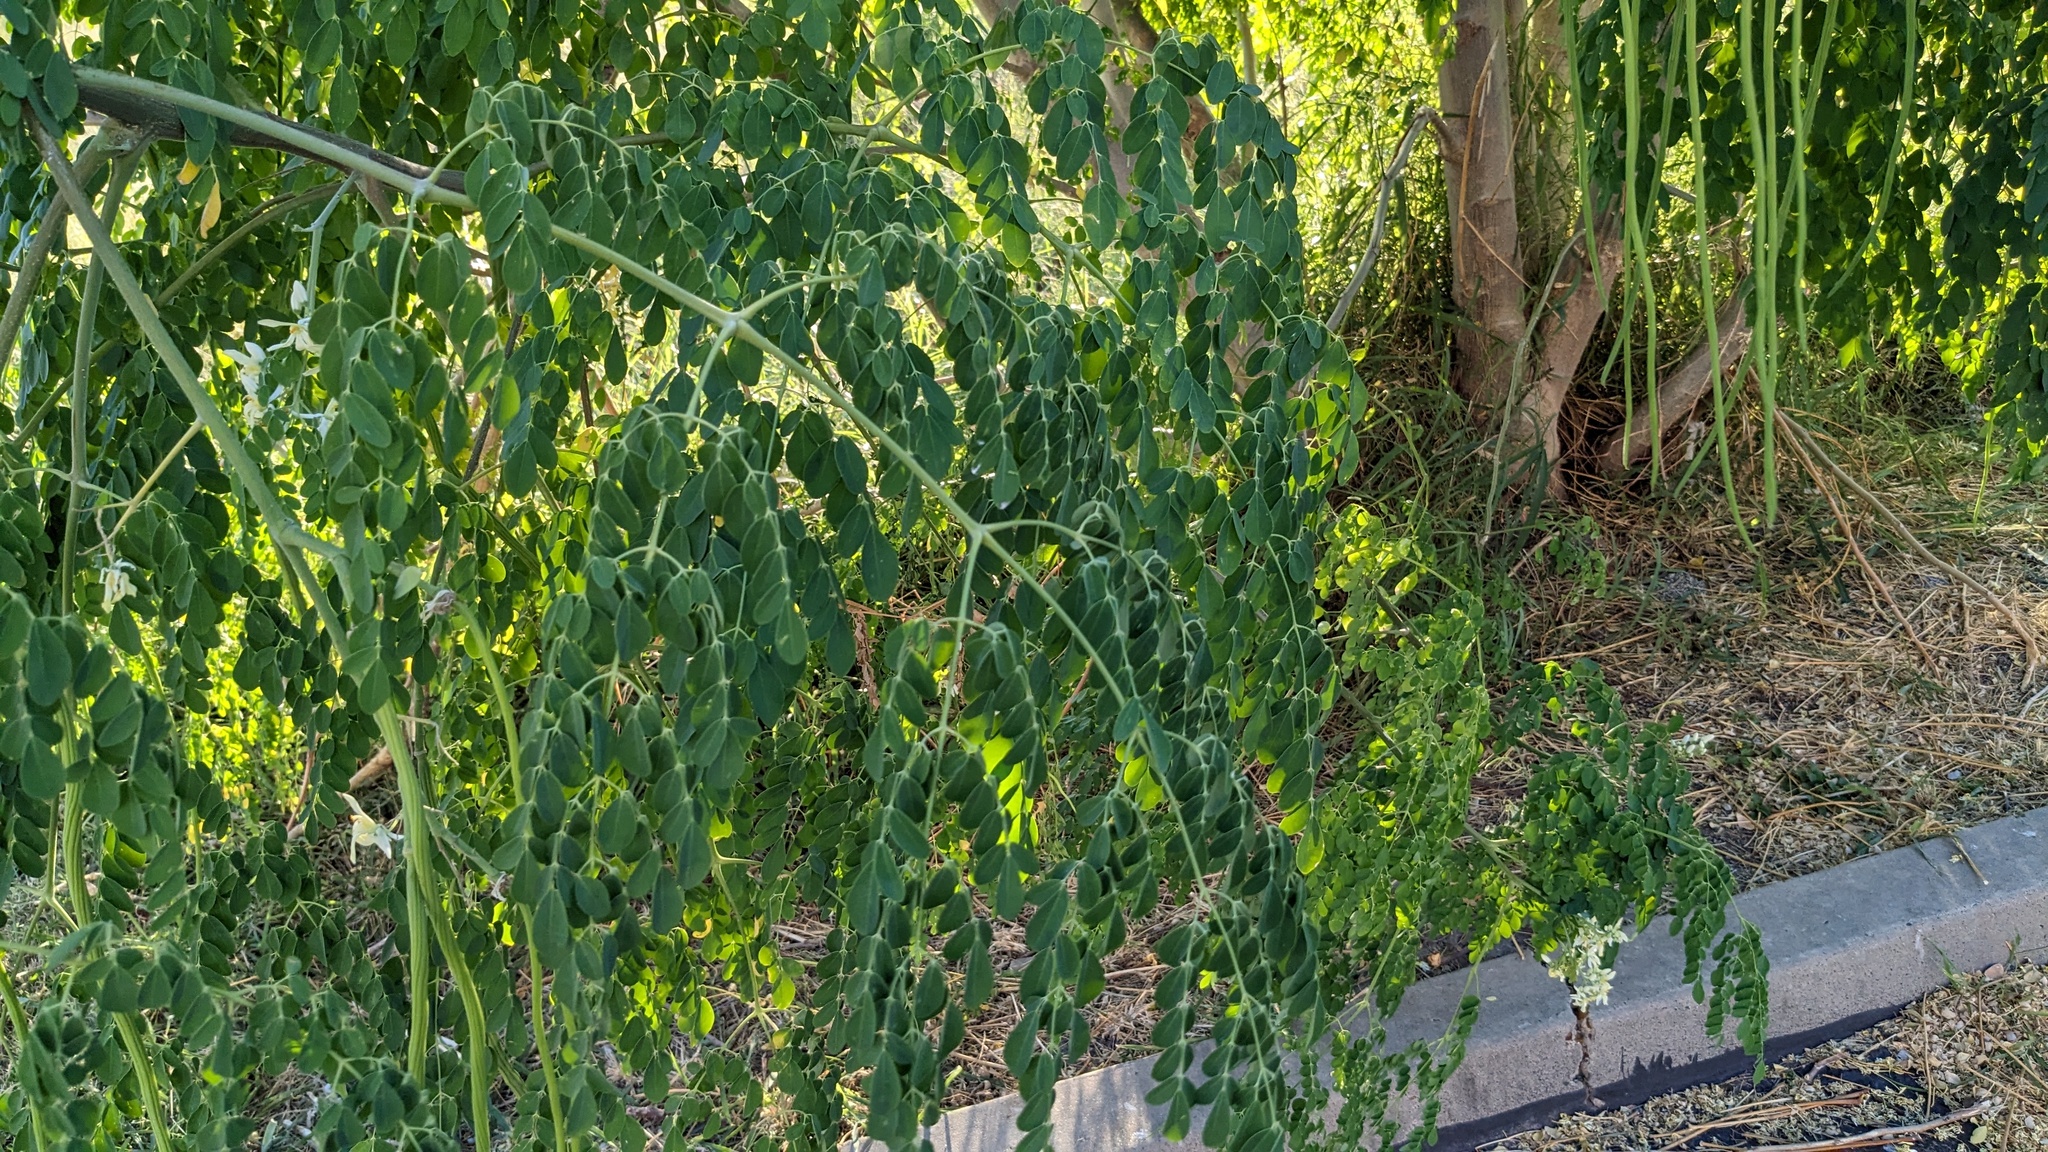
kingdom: Plantae
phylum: Tracheophyta
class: Magnoliopsida
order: Brassicales
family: Moringaceae
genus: Moringa
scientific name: Moringa oleifera
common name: Horseradish-tree
